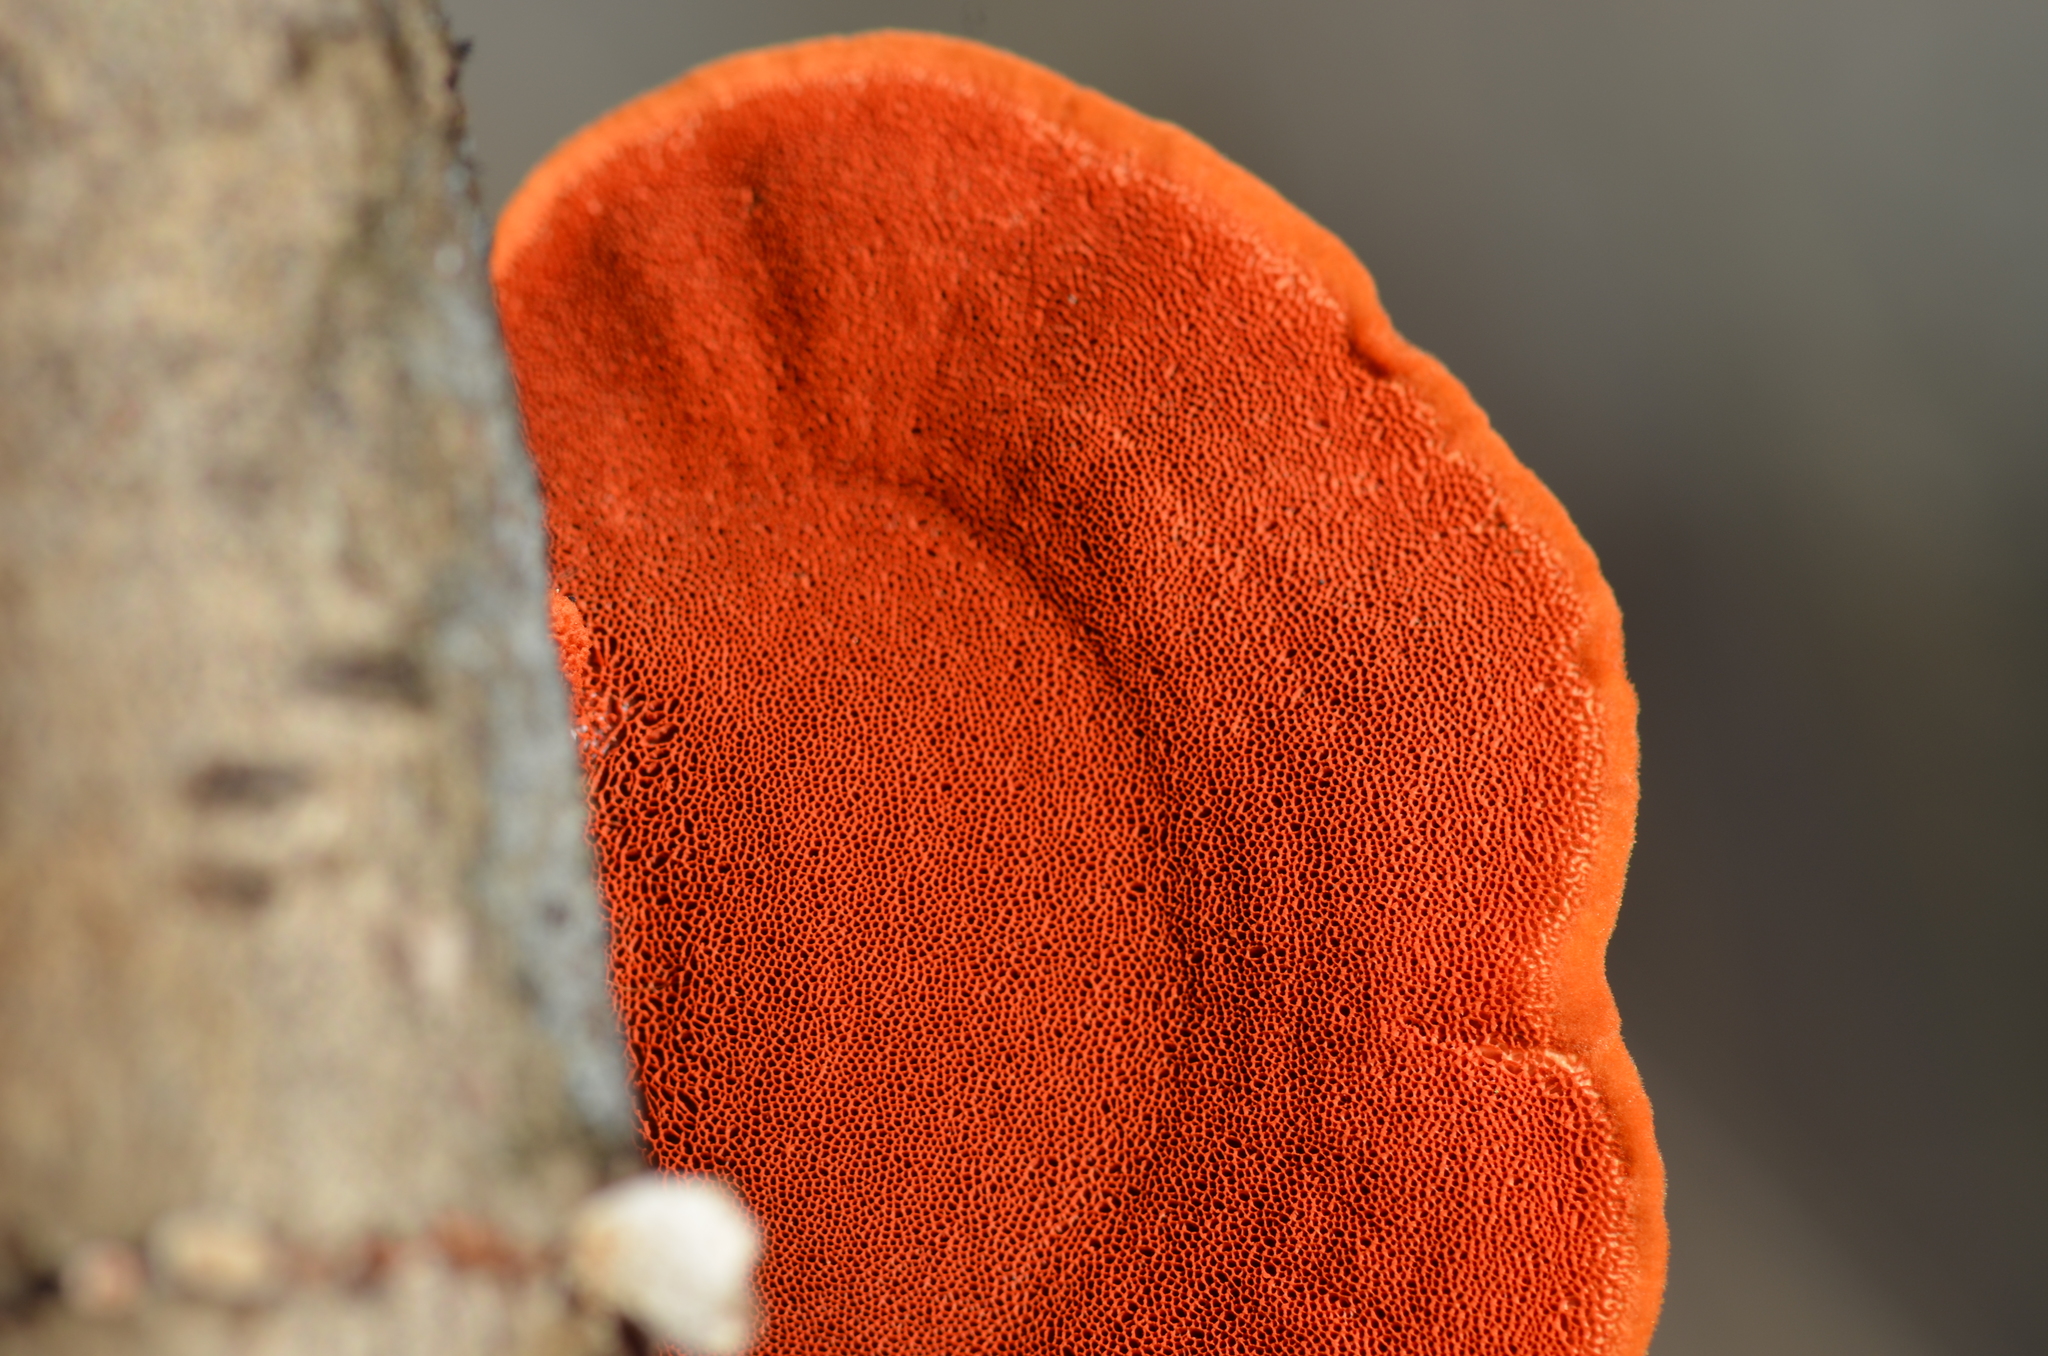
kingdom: Fungi
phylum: Basidiomycota
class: Agaricomycetes
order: Polyporales
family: Polyporaceae
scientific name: Polyporaceae
